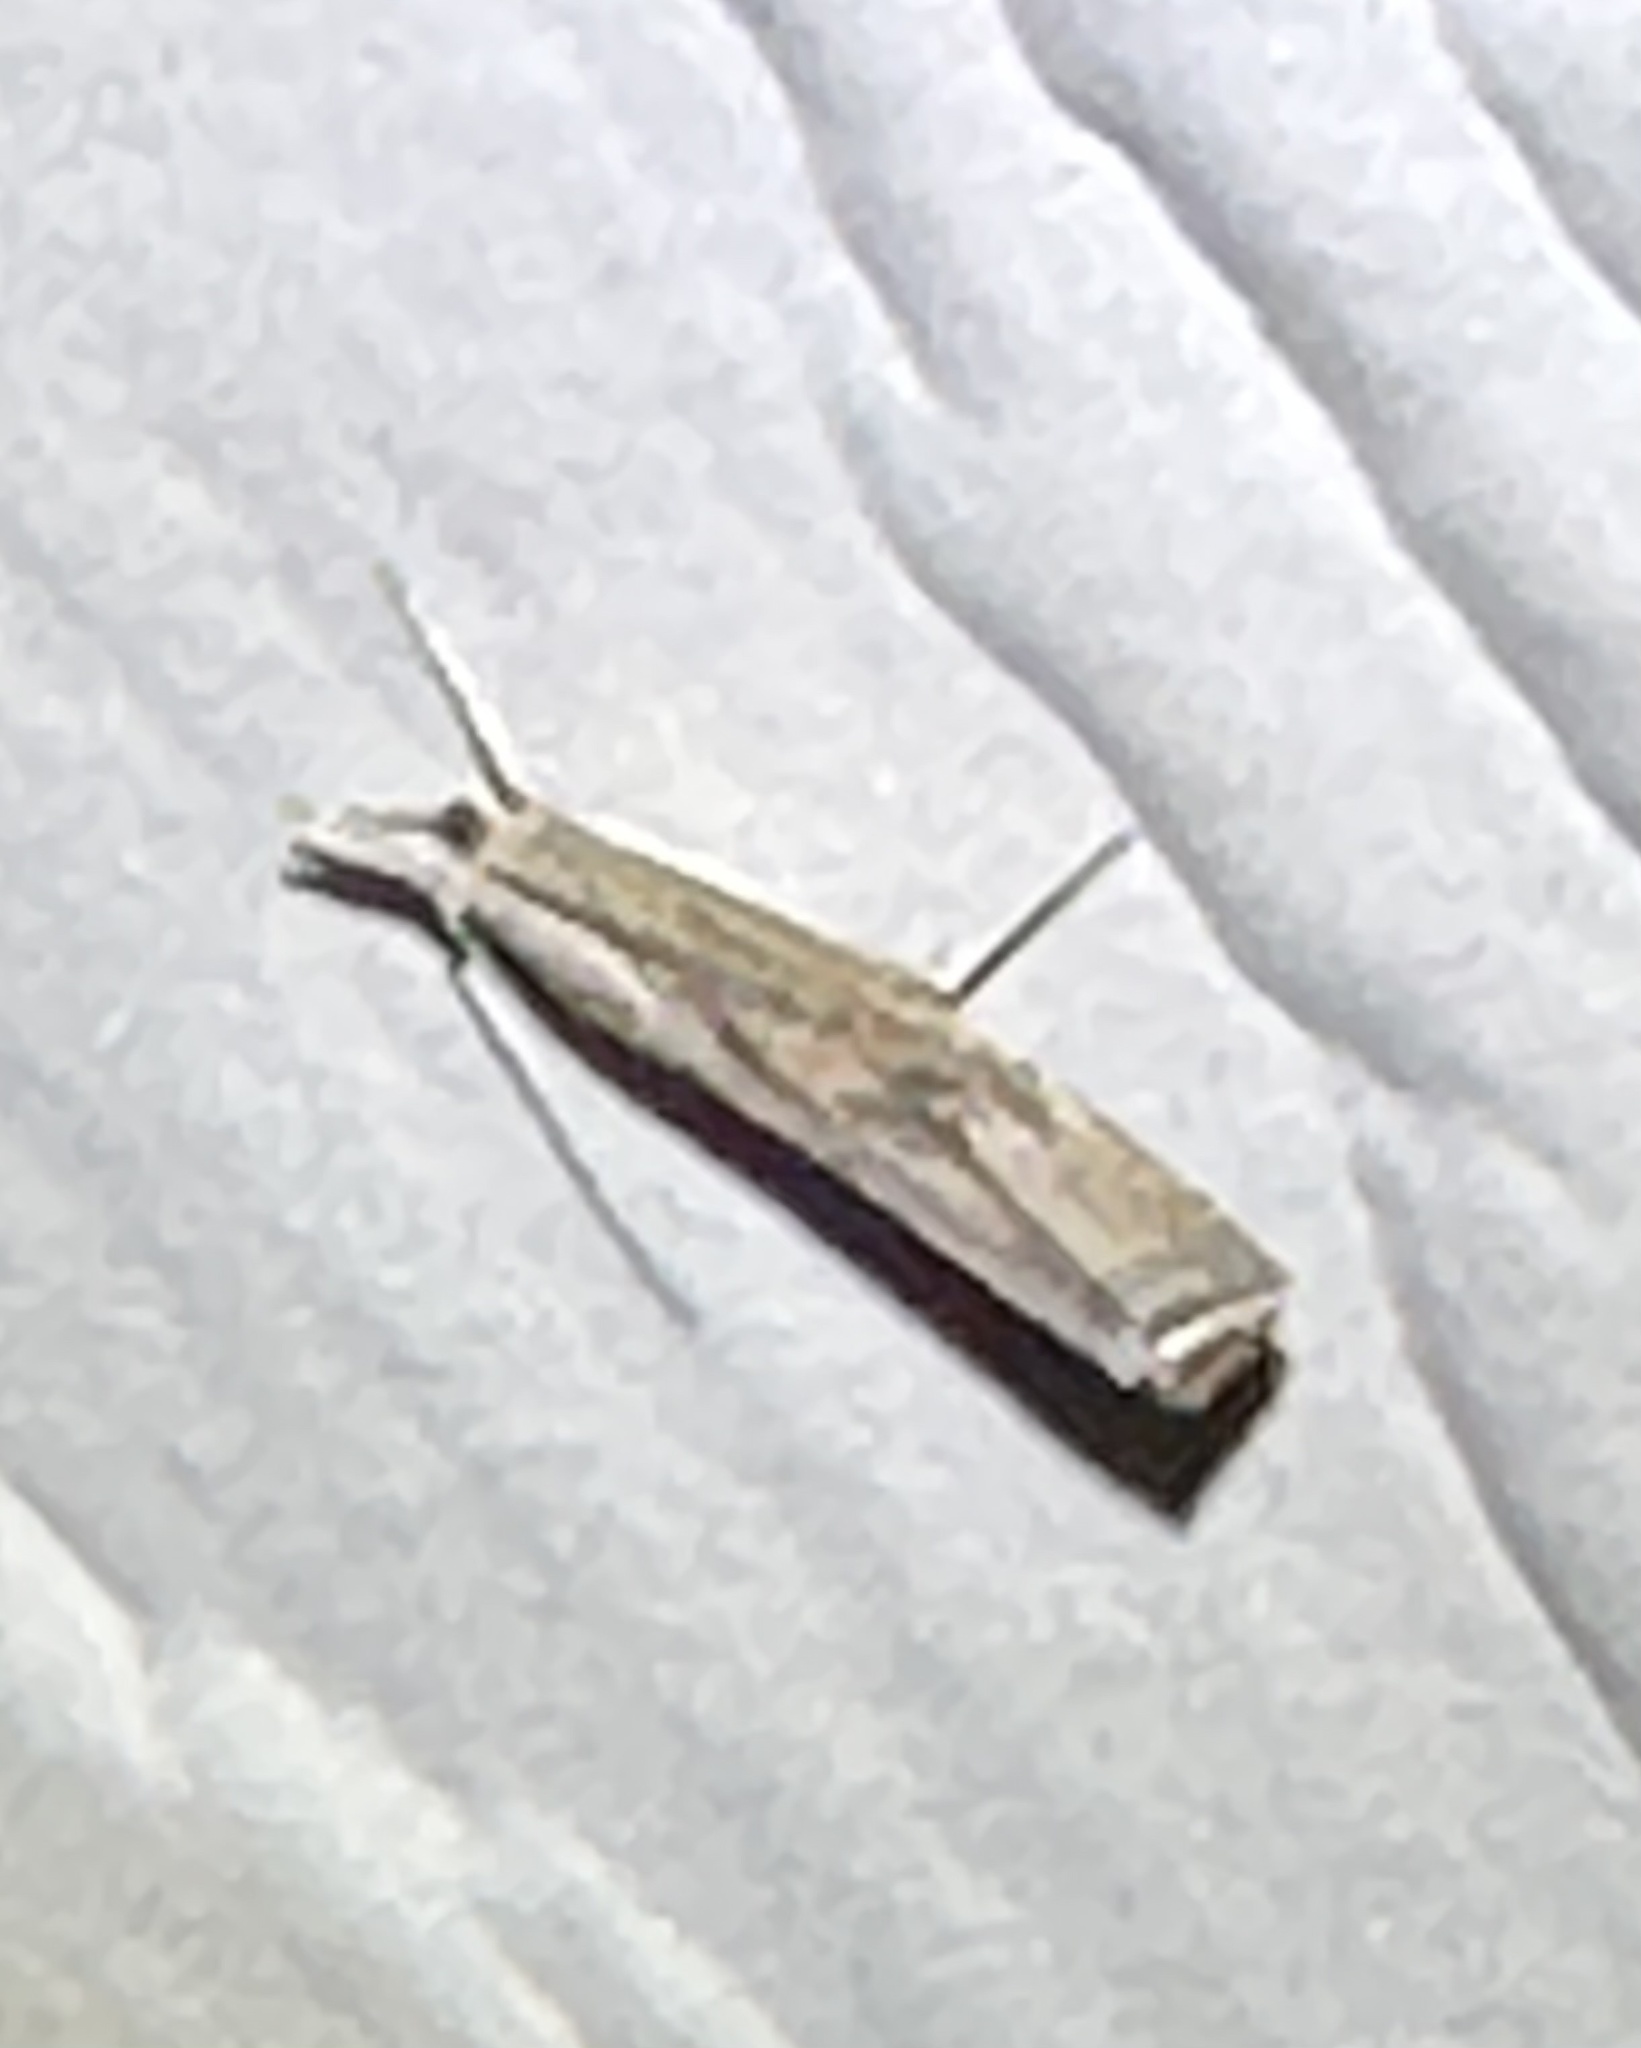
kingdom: Animalia
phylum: Arthropoda
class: Insecta
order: Lepidoptera
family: Crambidae
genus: Parapediasia
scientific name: Parapediasia teterellus
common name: Bluegrass webworm moth
